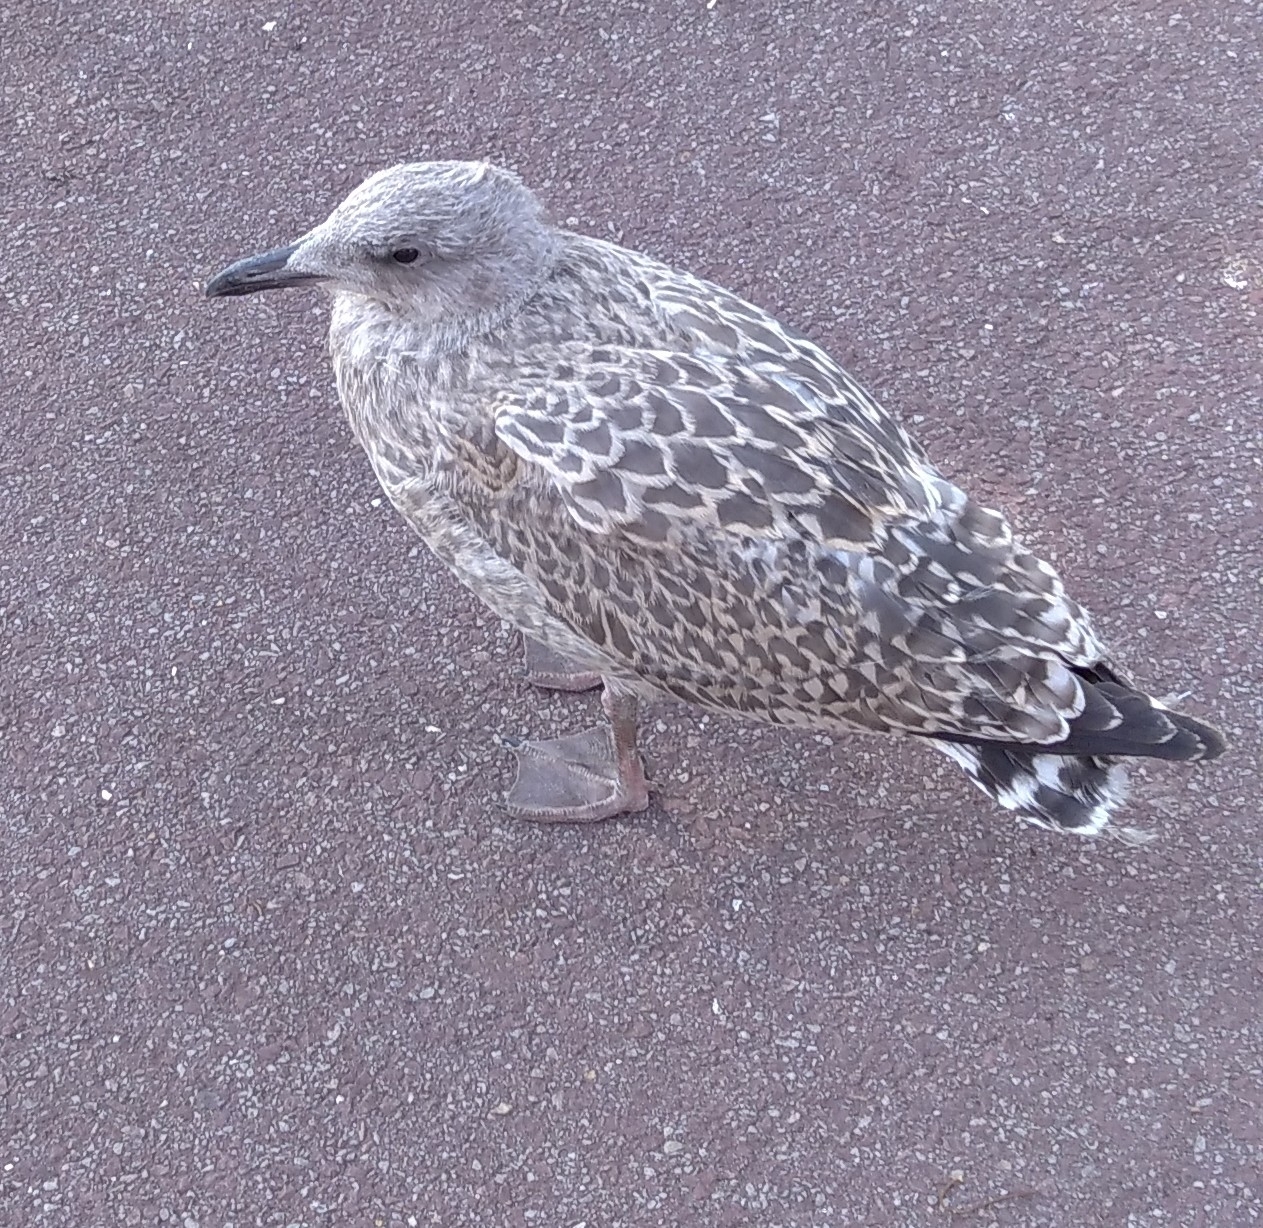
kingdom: Animalia
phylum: Chordata
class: Aves
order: Charadriiformes
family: Laridae
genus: Larus
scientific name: Larus argentatus
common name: Herring gull
